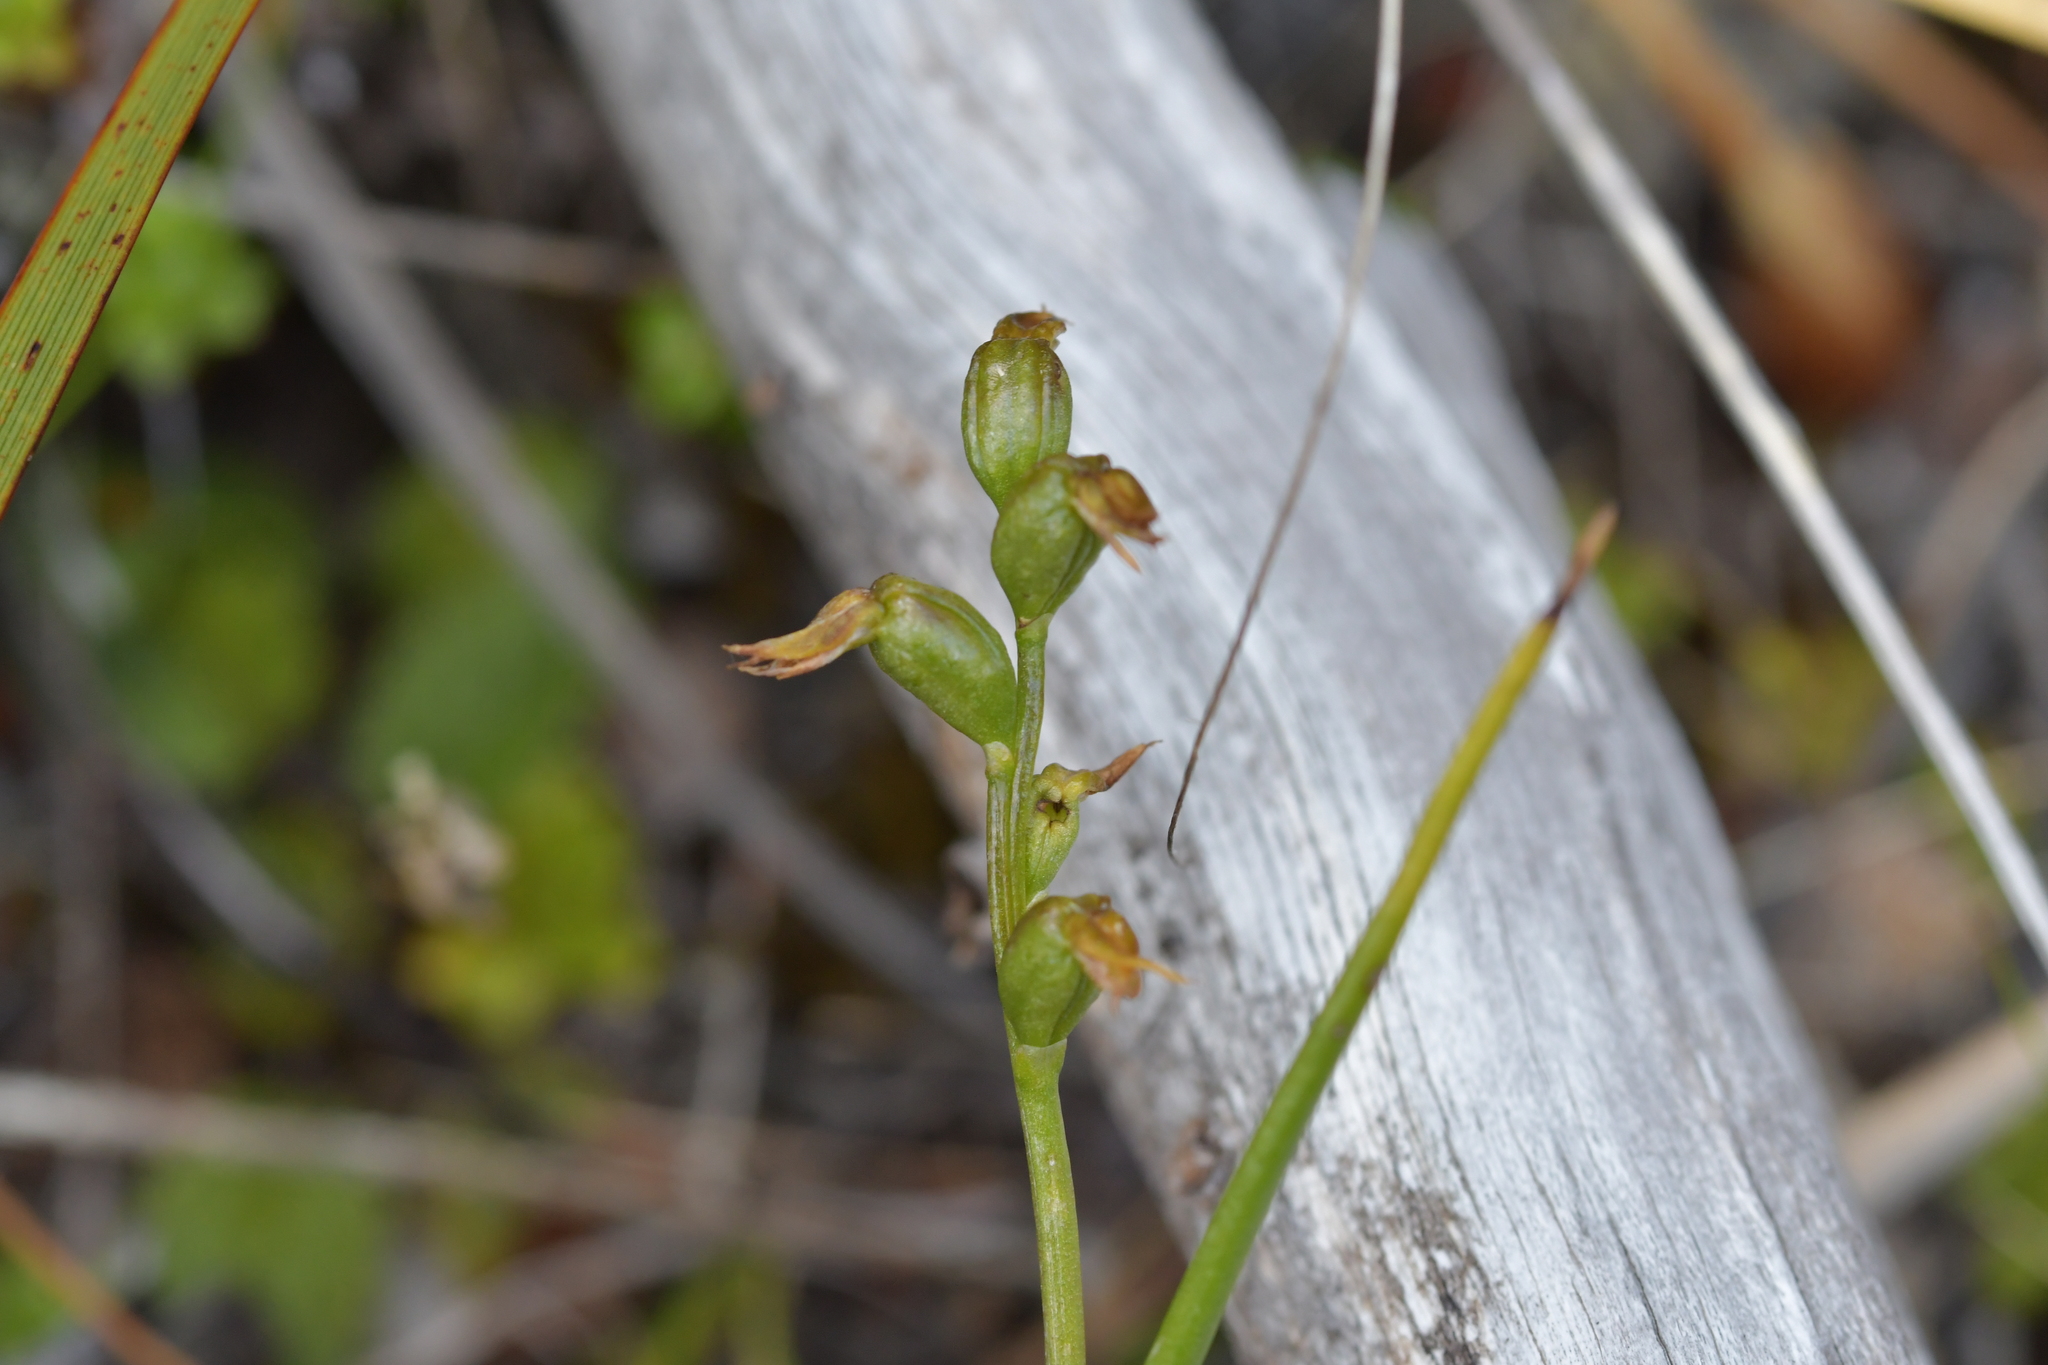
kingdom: Plantae
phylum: Tracheophyta
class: Liliopsida
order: Asparagales
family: Orchidaceae
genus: Prasophyllum
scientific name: Prasophyllum colensoi
